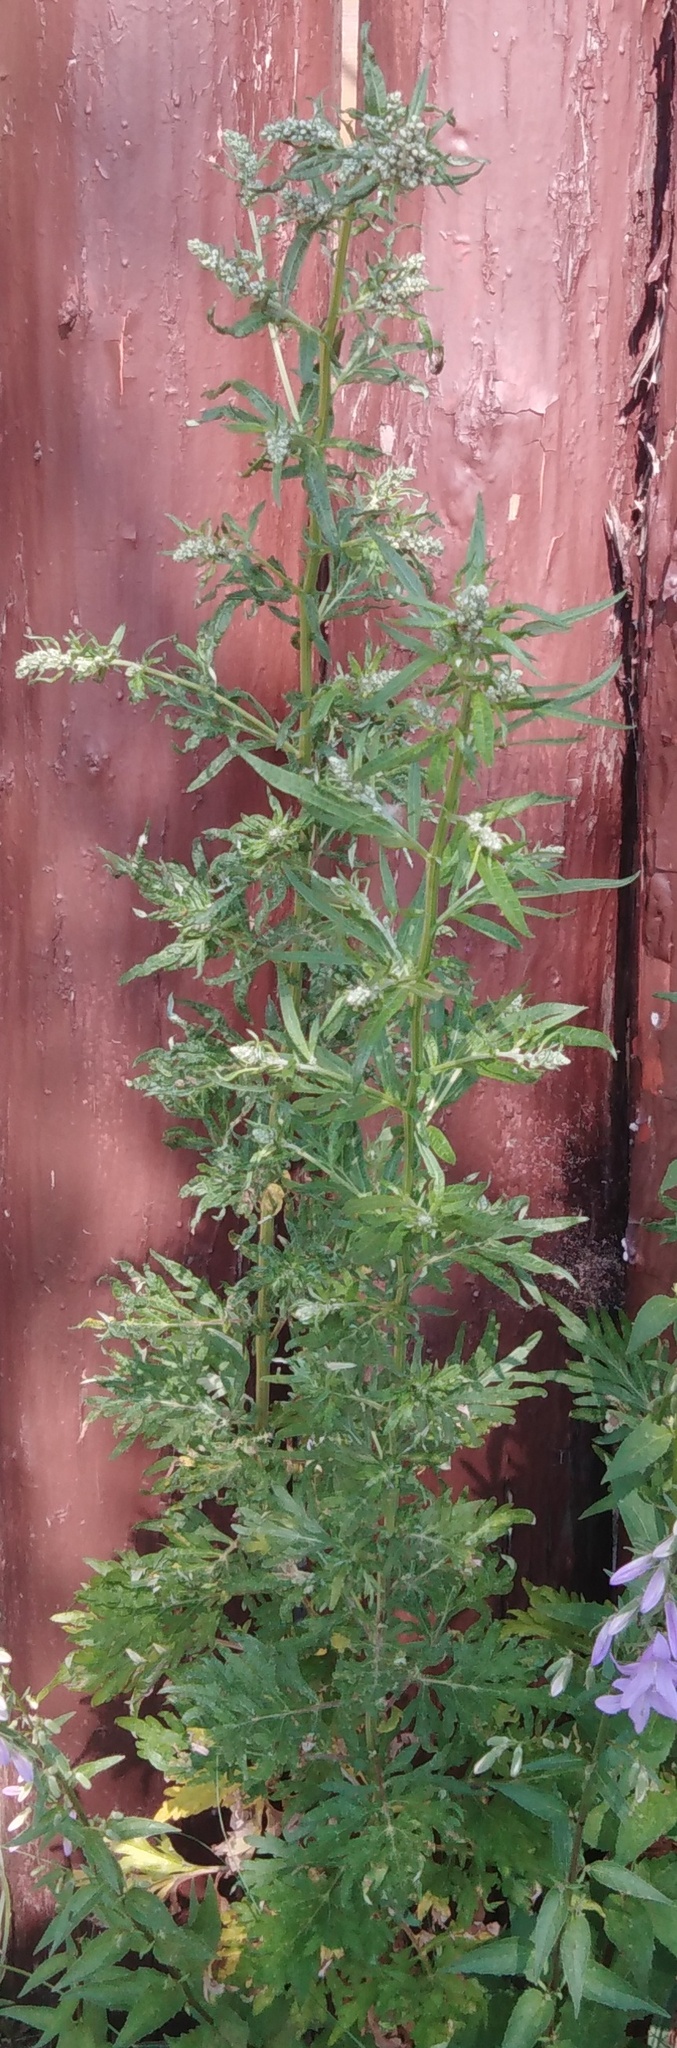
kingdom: Plantae
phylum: Tracheophyta
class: Magnoliopsida
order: Asterales
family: Asteraceae
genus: Artemisia
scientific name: Artemisia vulgaris
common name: Mugwort
